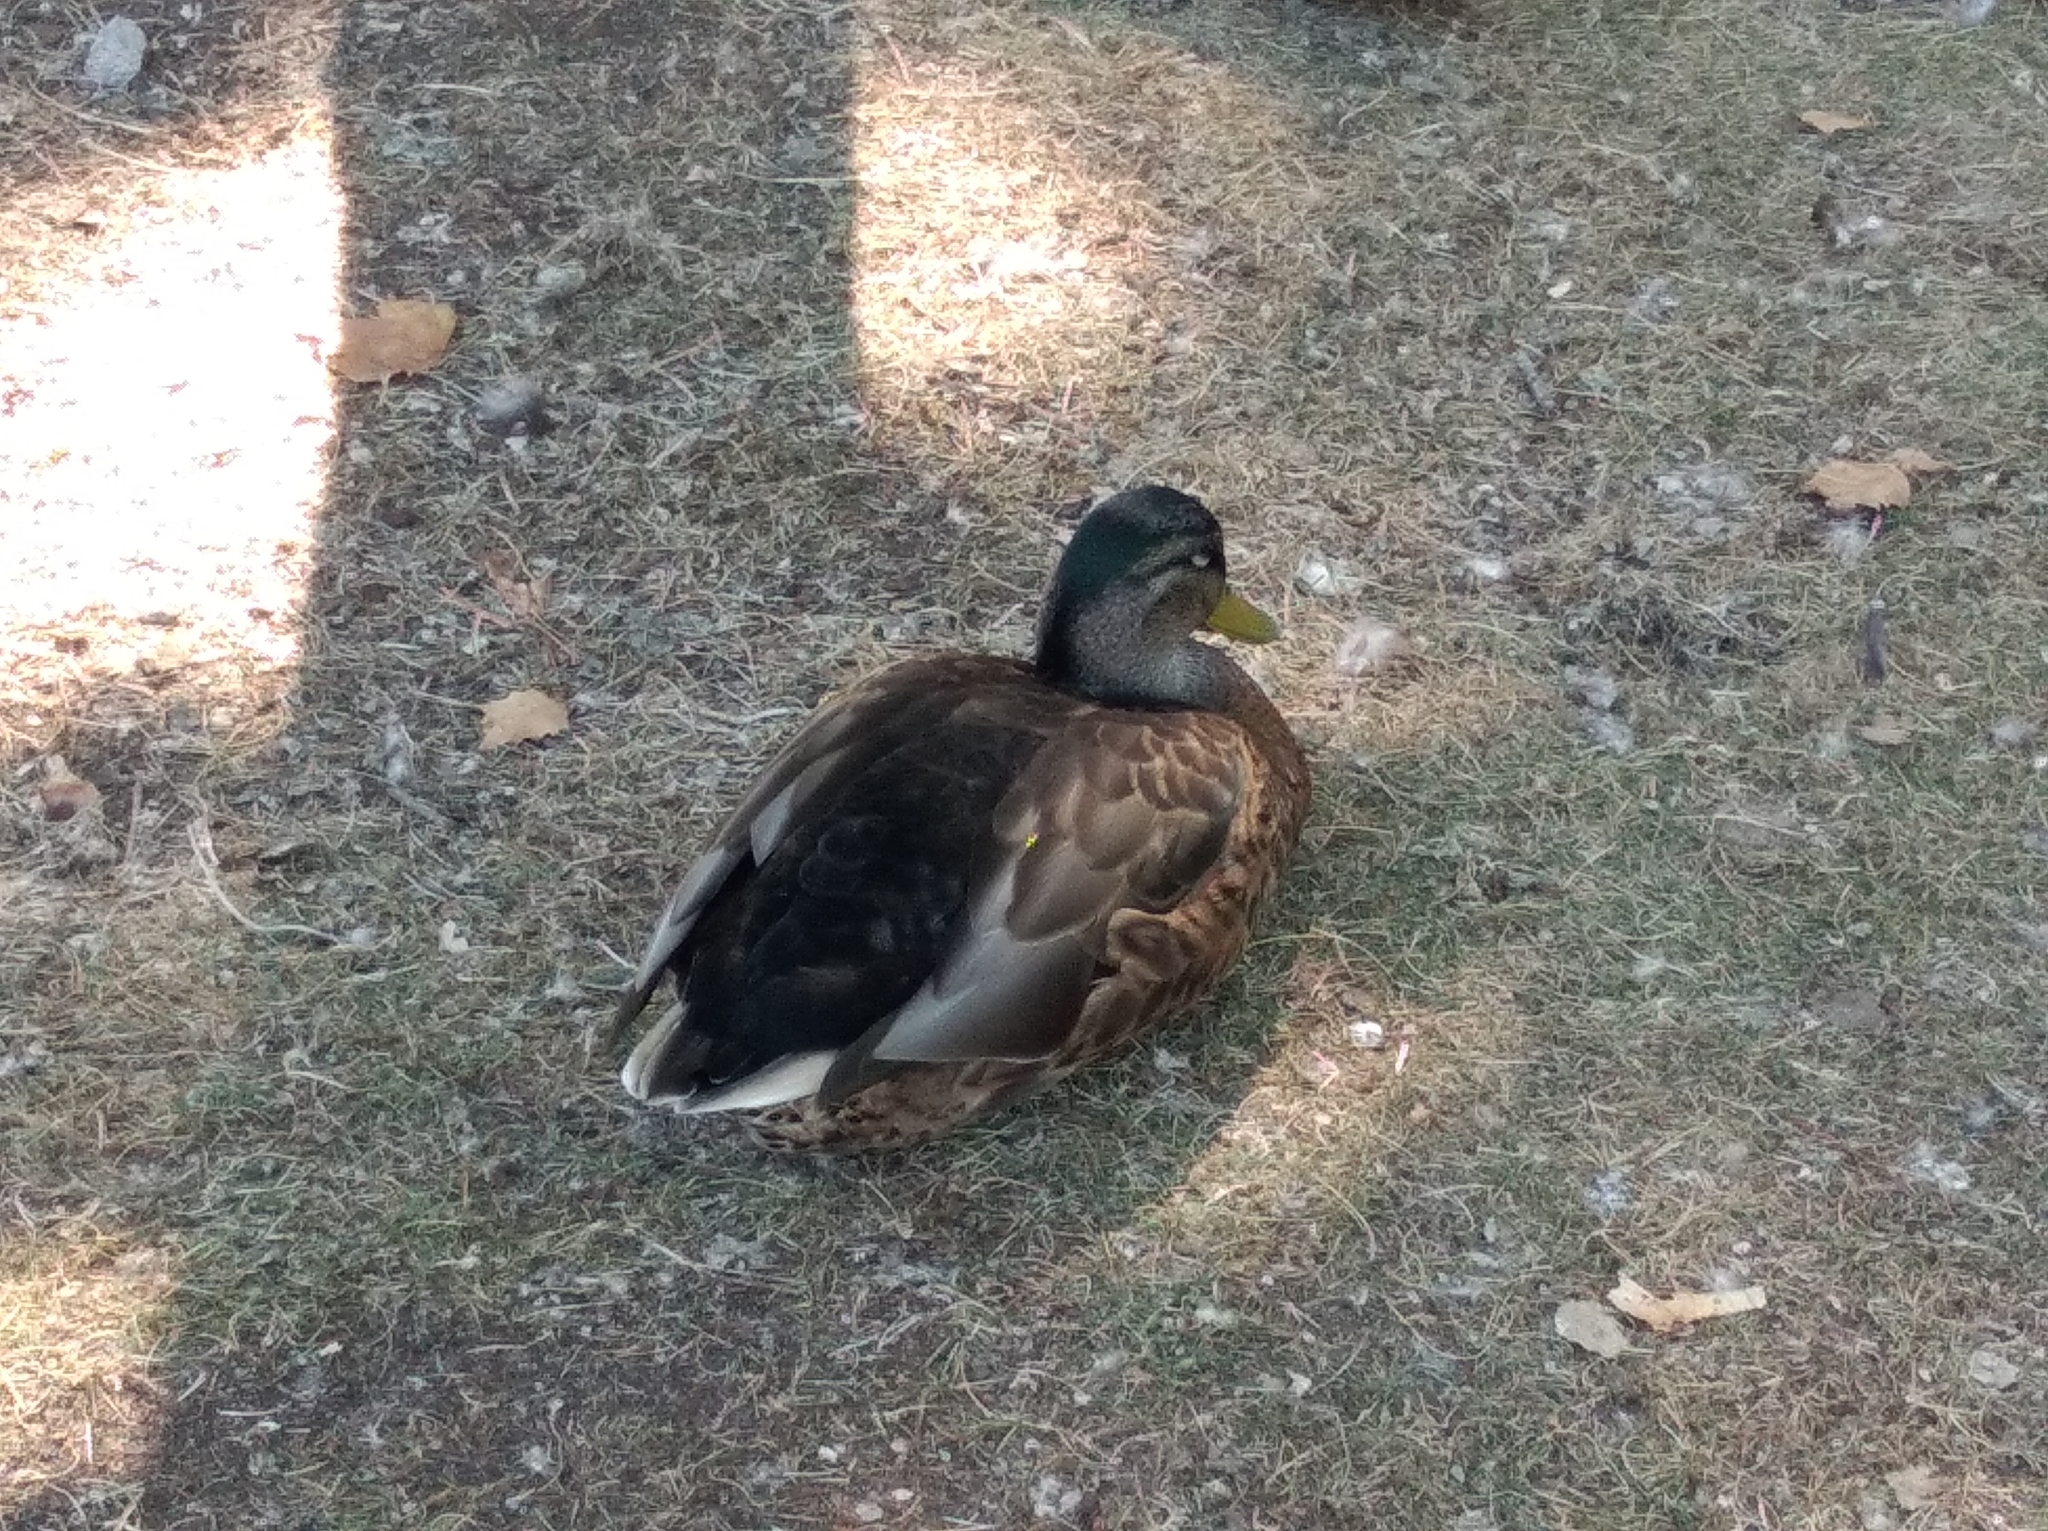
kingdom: Animalia
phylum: Chordata
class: Aves
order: Anseriformes
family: Anatidae
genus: Anas
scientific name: Anas platyrhynchos
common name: Mallard
